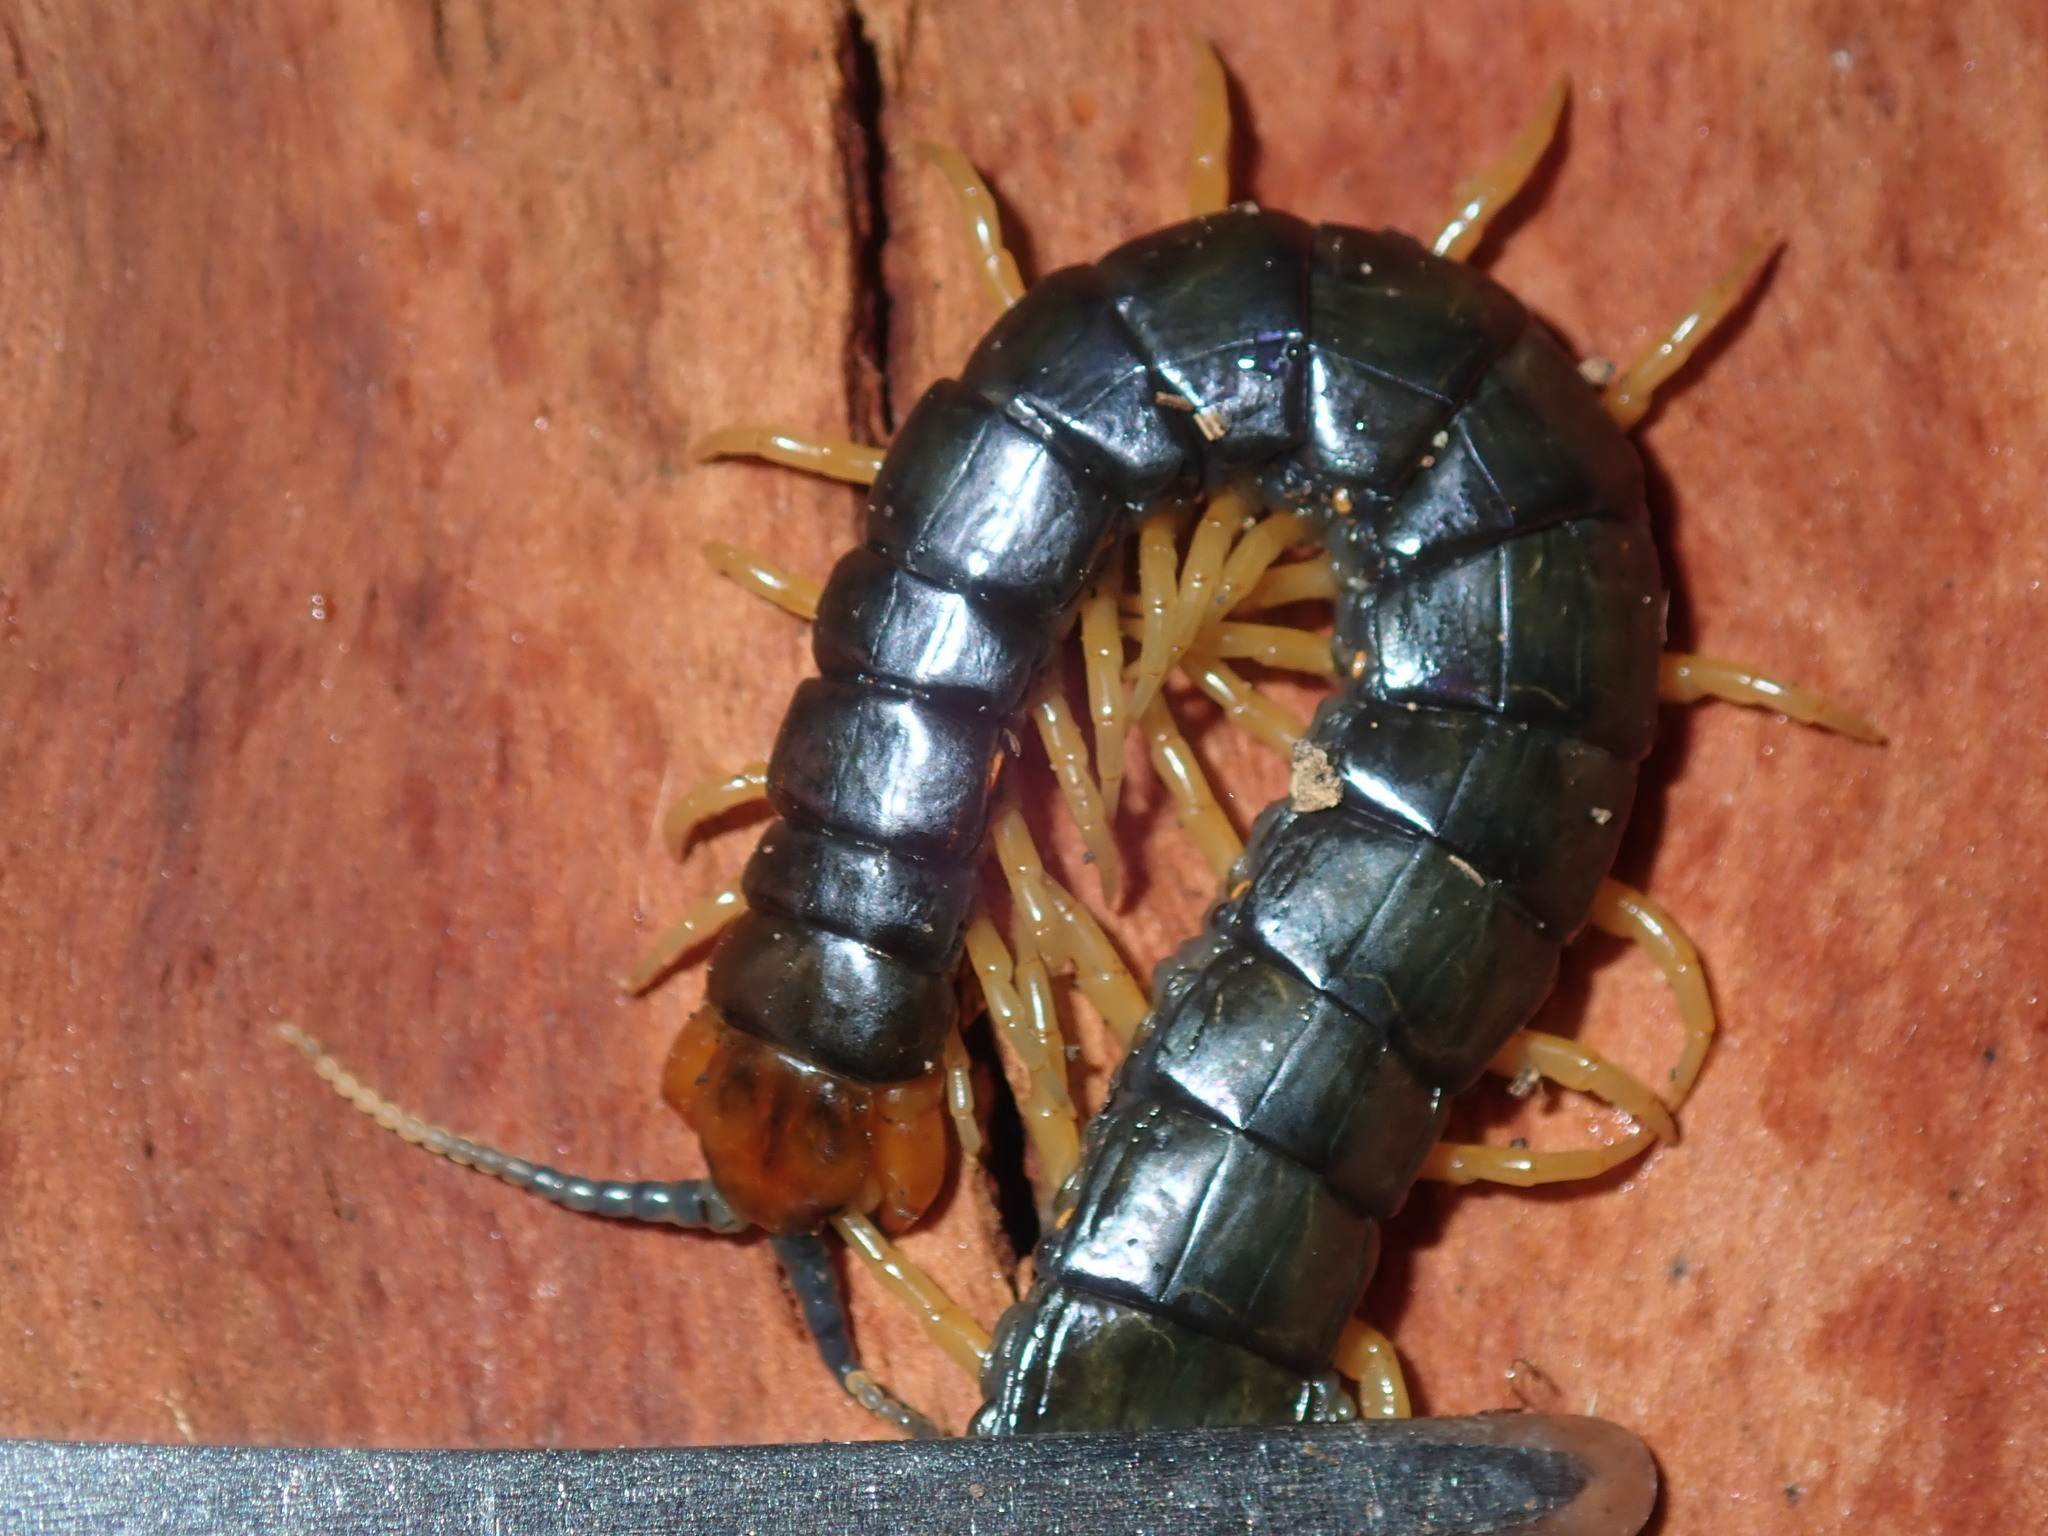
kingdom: Animalia
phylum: Arthropoda
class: Chilopoda
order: Scolopendromorpha
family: Scolopendridae
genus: Cormocephalus
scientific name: Cormocephalus westwoodi
